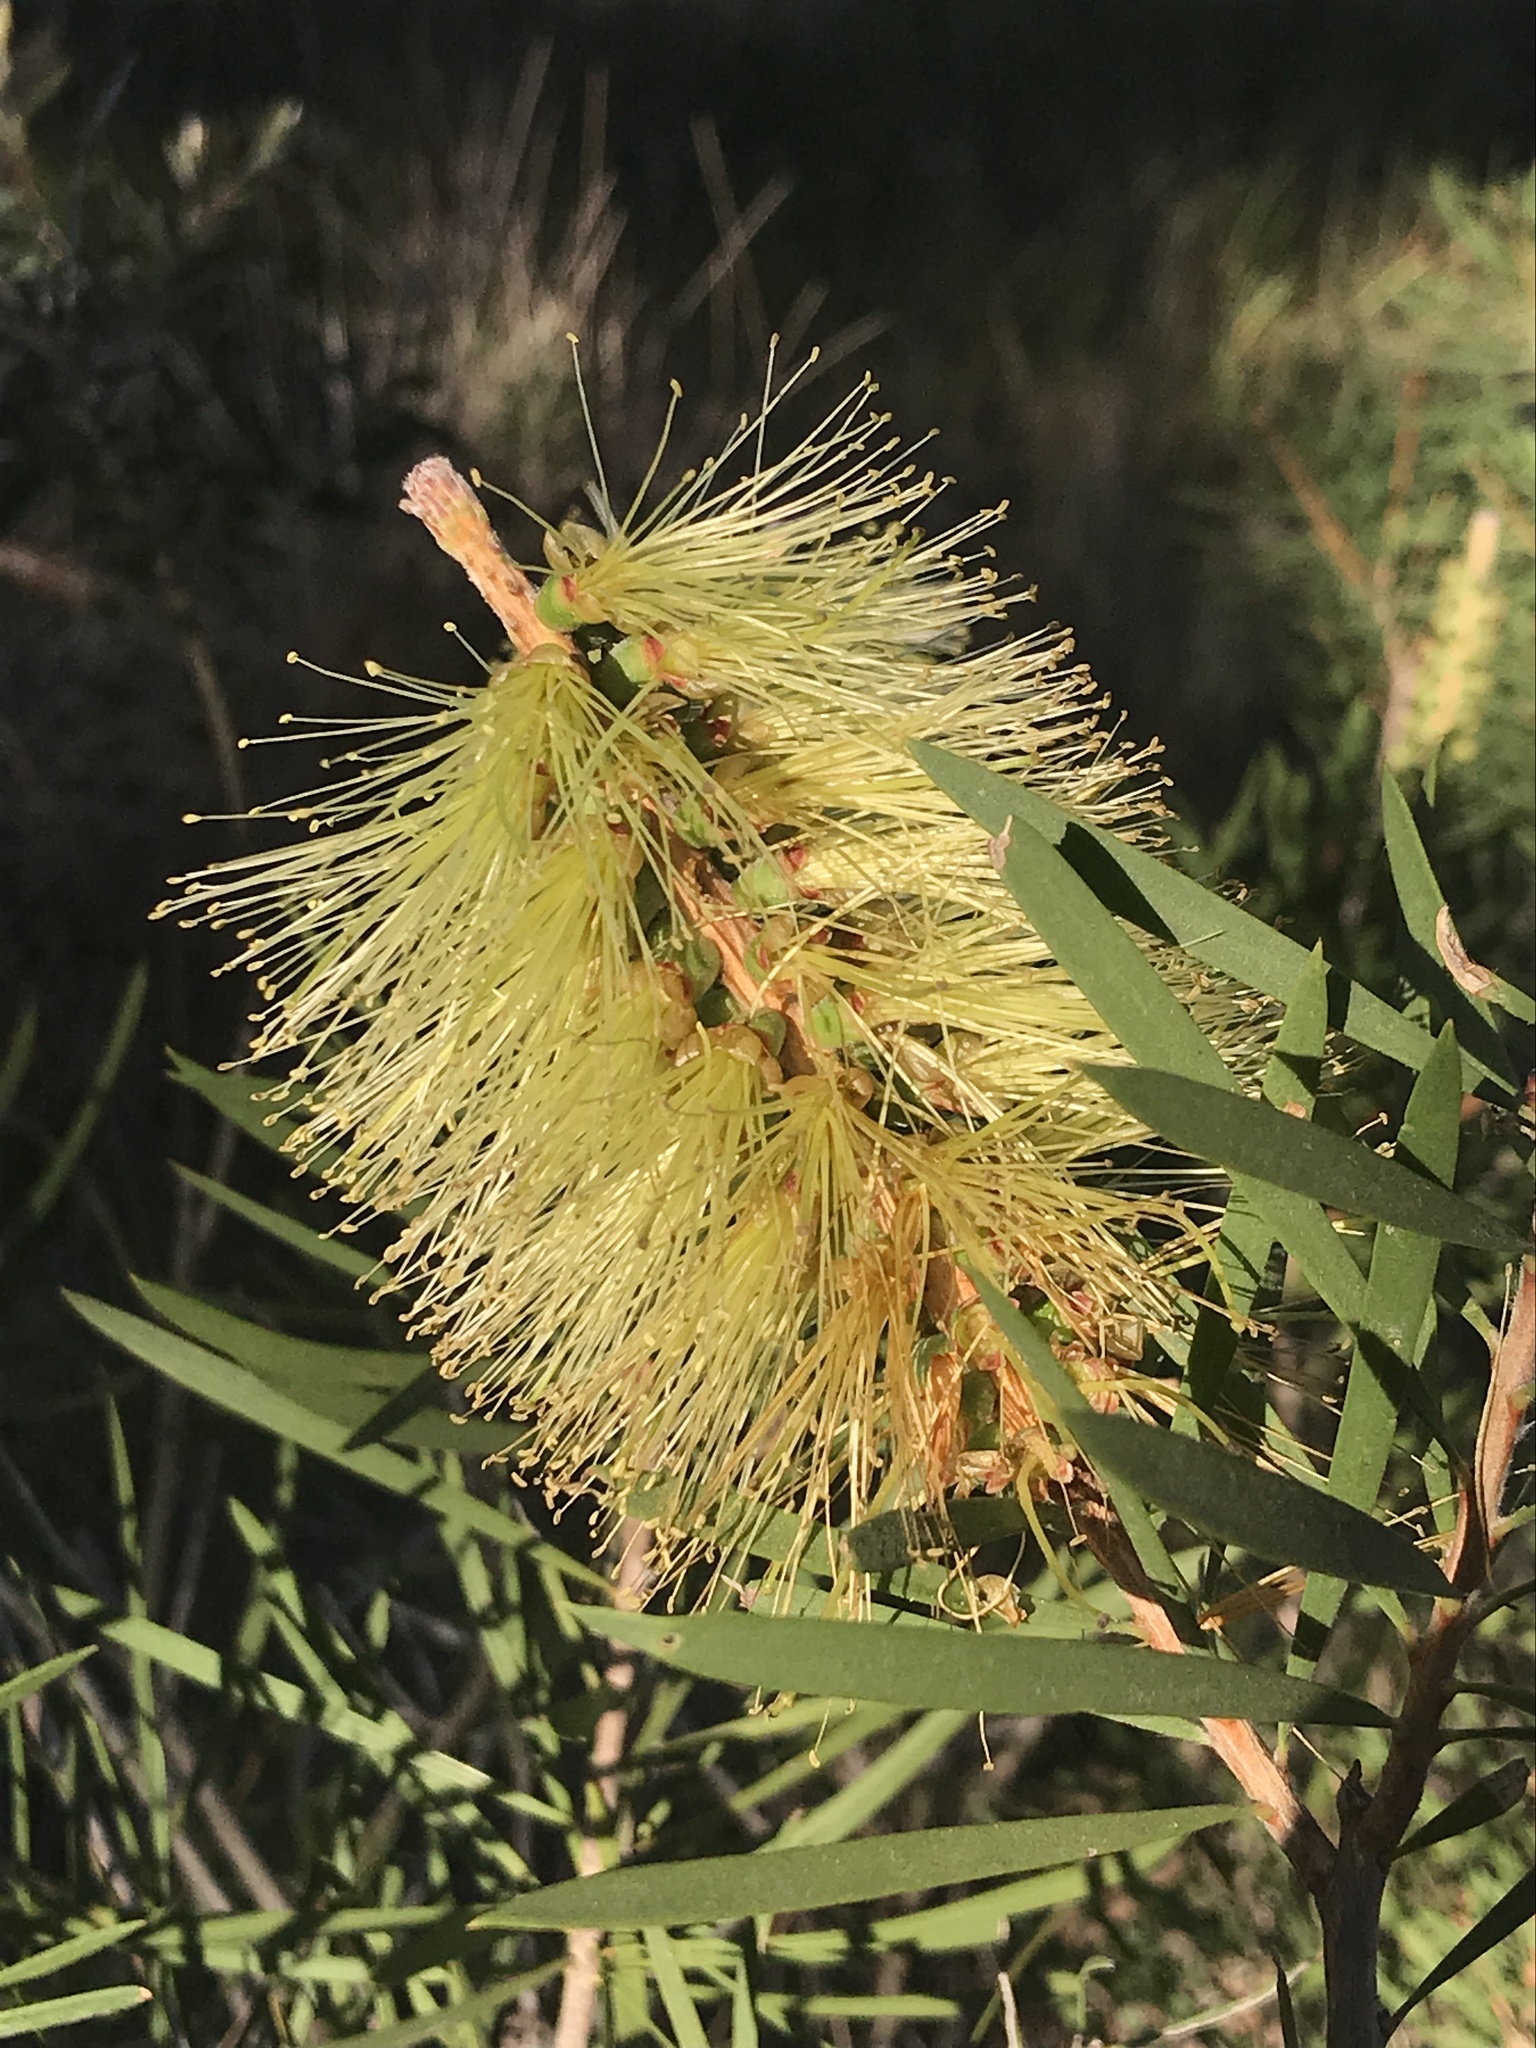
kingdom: Plantae
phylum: Tracheophyta
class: Magnoliopsida
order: Myrtales
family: Myrtaceae
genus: Callistemon
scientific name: Callistemon pachyphyllus
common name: Wallum bottlebrush
